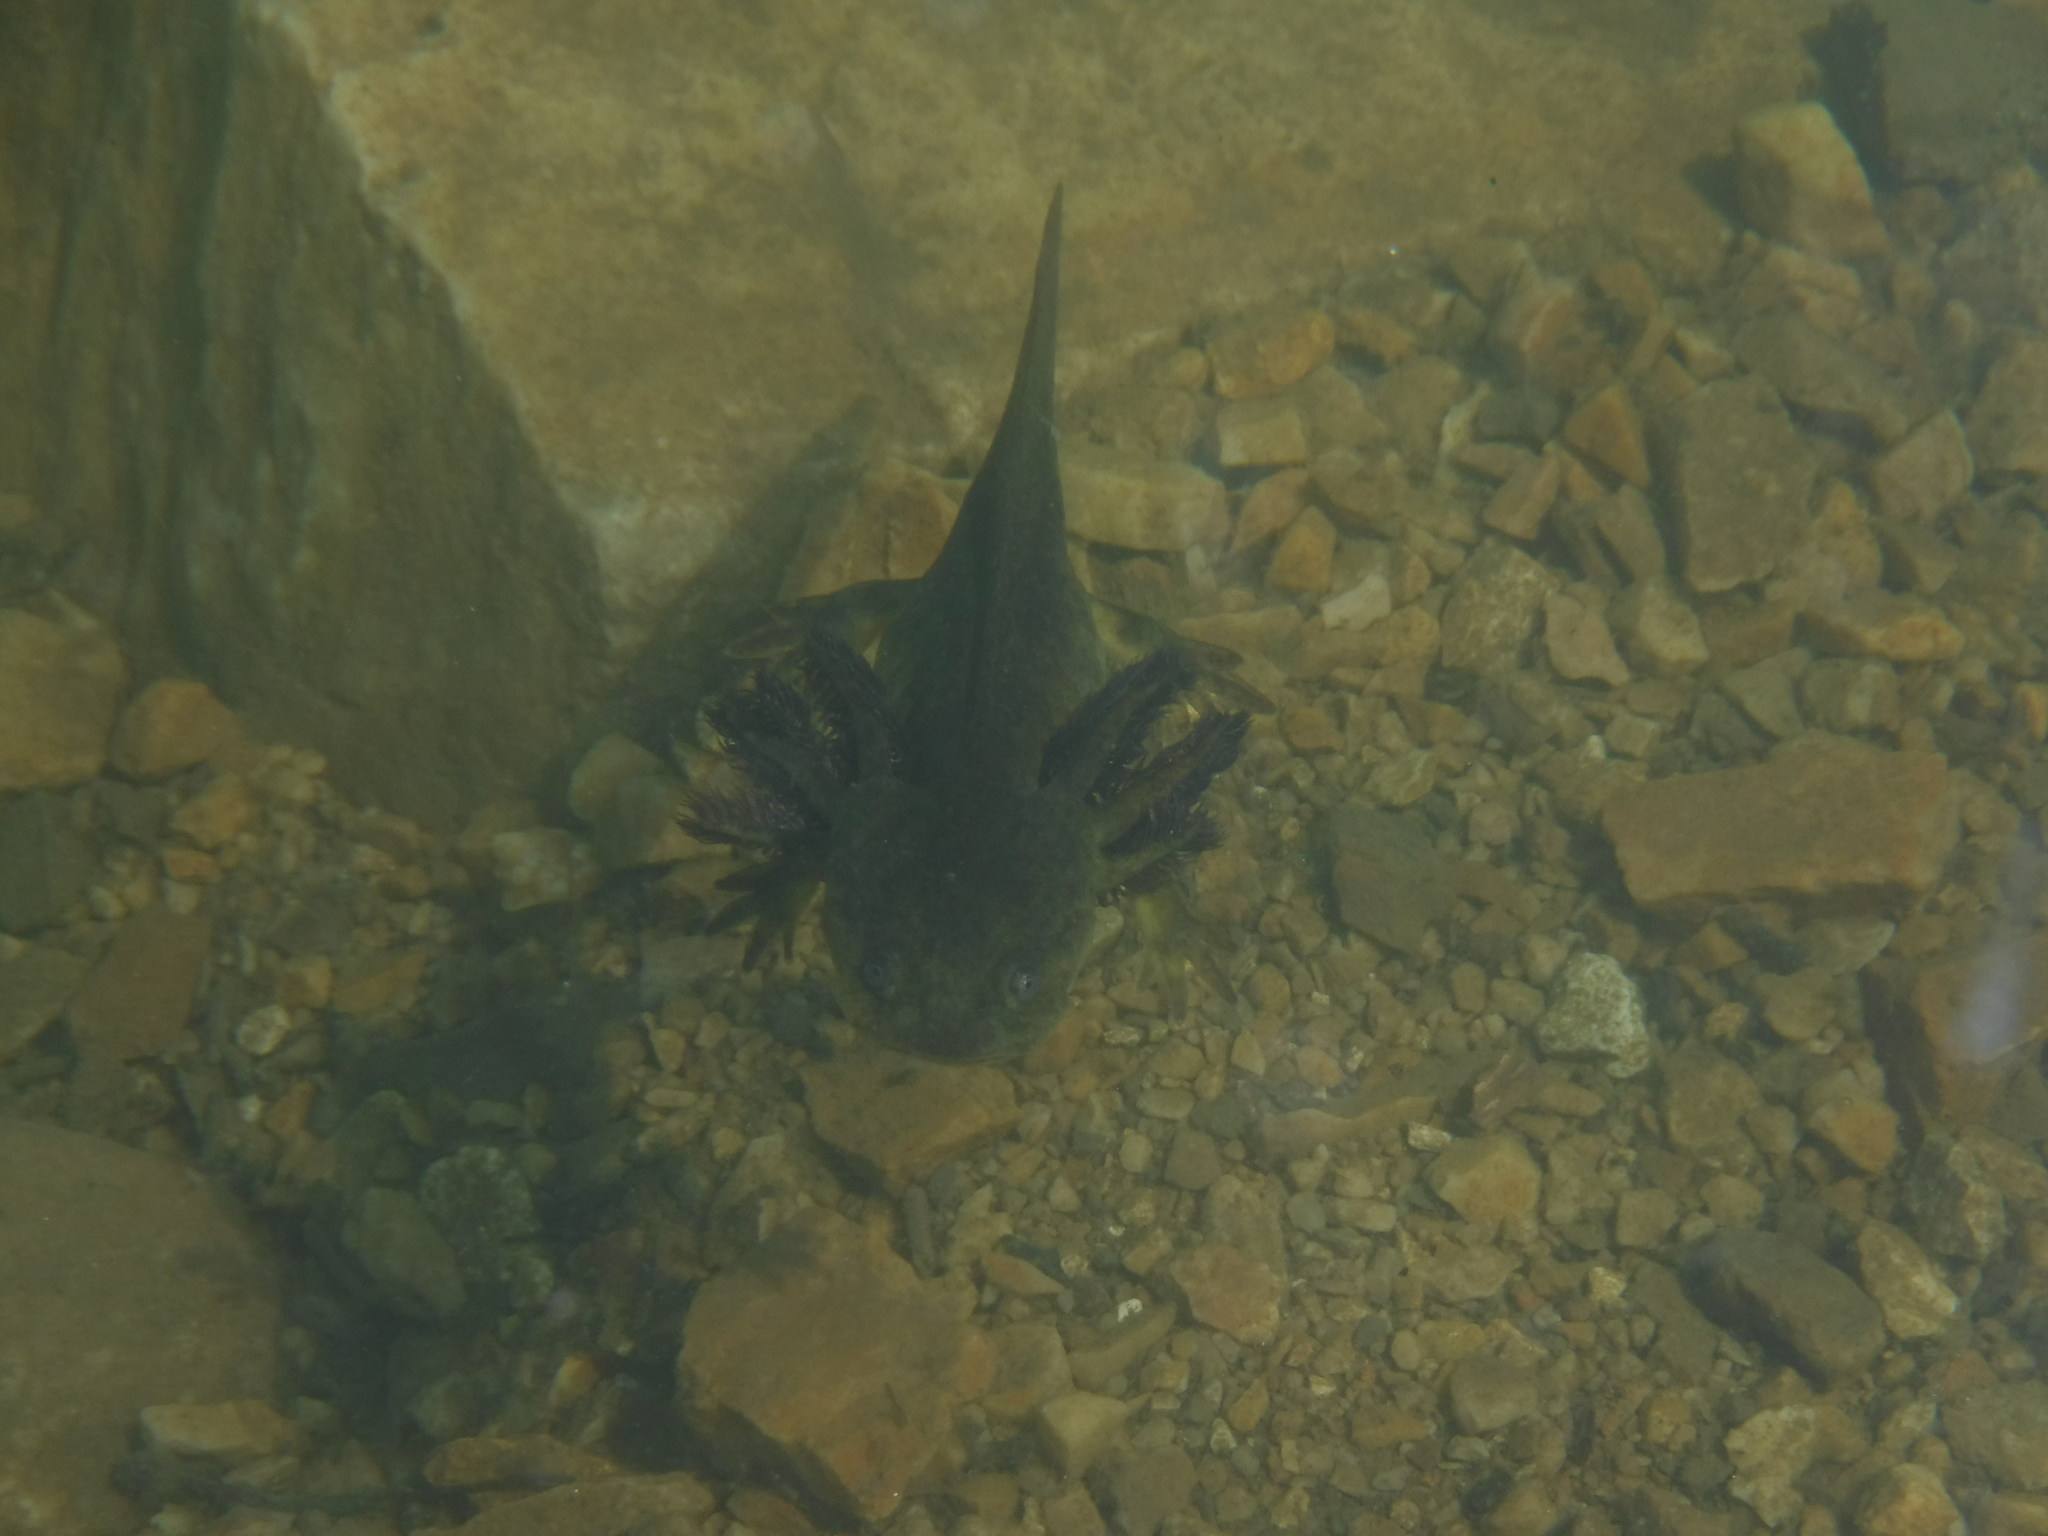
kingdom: Animalia
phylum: Chordata
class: Amphibia
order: Caudata
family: Ambystomatidae
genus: Ambystoma
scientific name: Ambystoma mavortium
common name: Western tiger salamander
